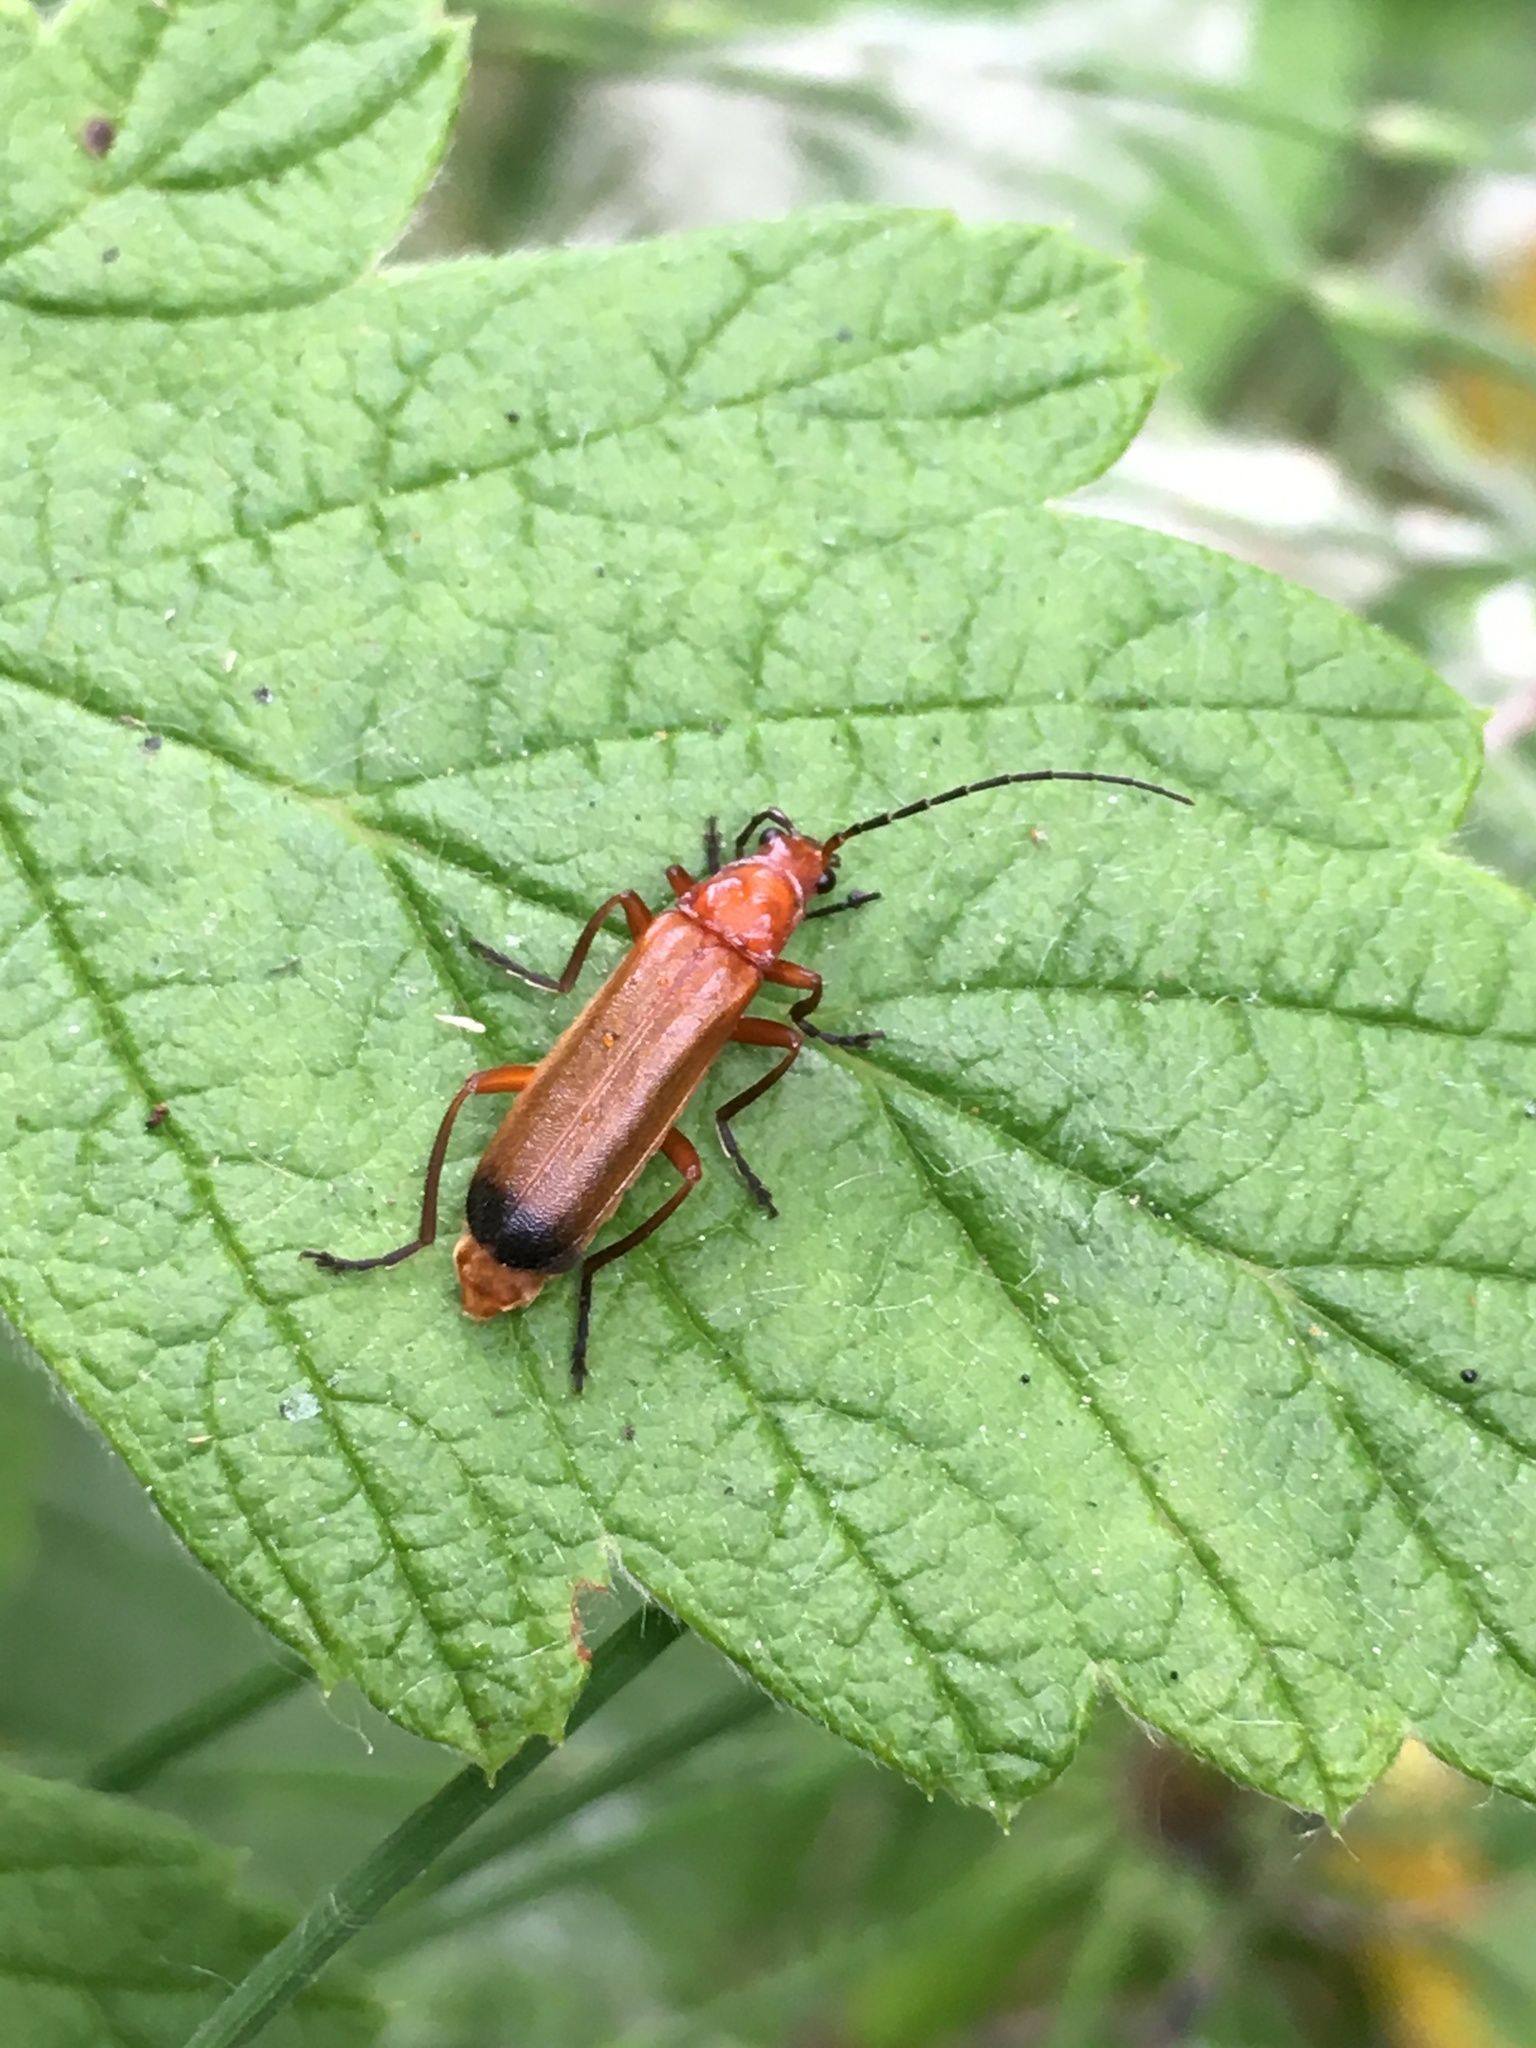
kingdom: Animalia
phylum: Arthropoda
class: Insecta
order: Coleoptera
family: Cantharidae
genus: Rhagonycha
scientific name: Rhagonycha fulva
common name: Common red soldier beetle
